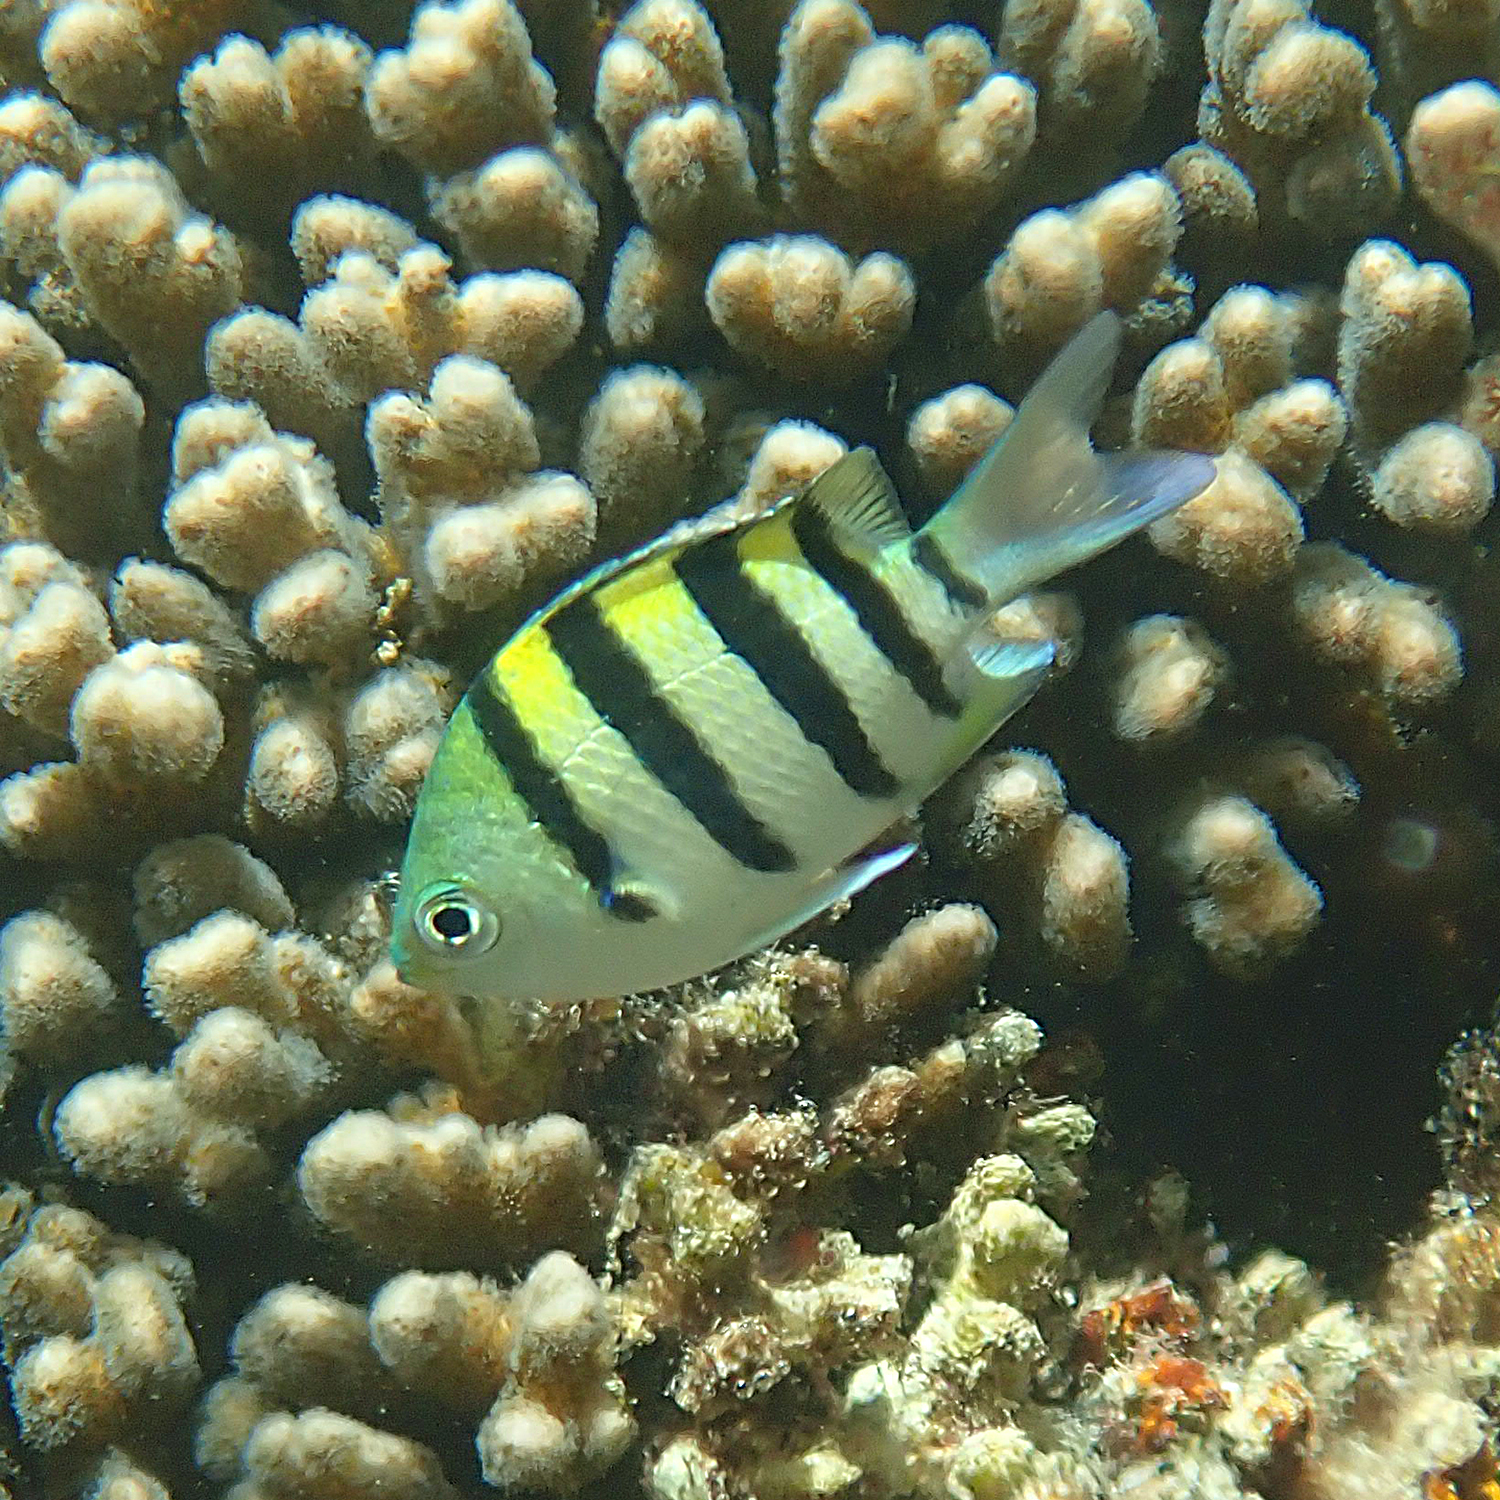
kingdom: Animalia
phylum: Chordata
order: Perciformes
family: Pomacentridae
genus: Abudefduf
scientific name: Abudefduf vaigiensis
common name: Indo-pacific sergeant
